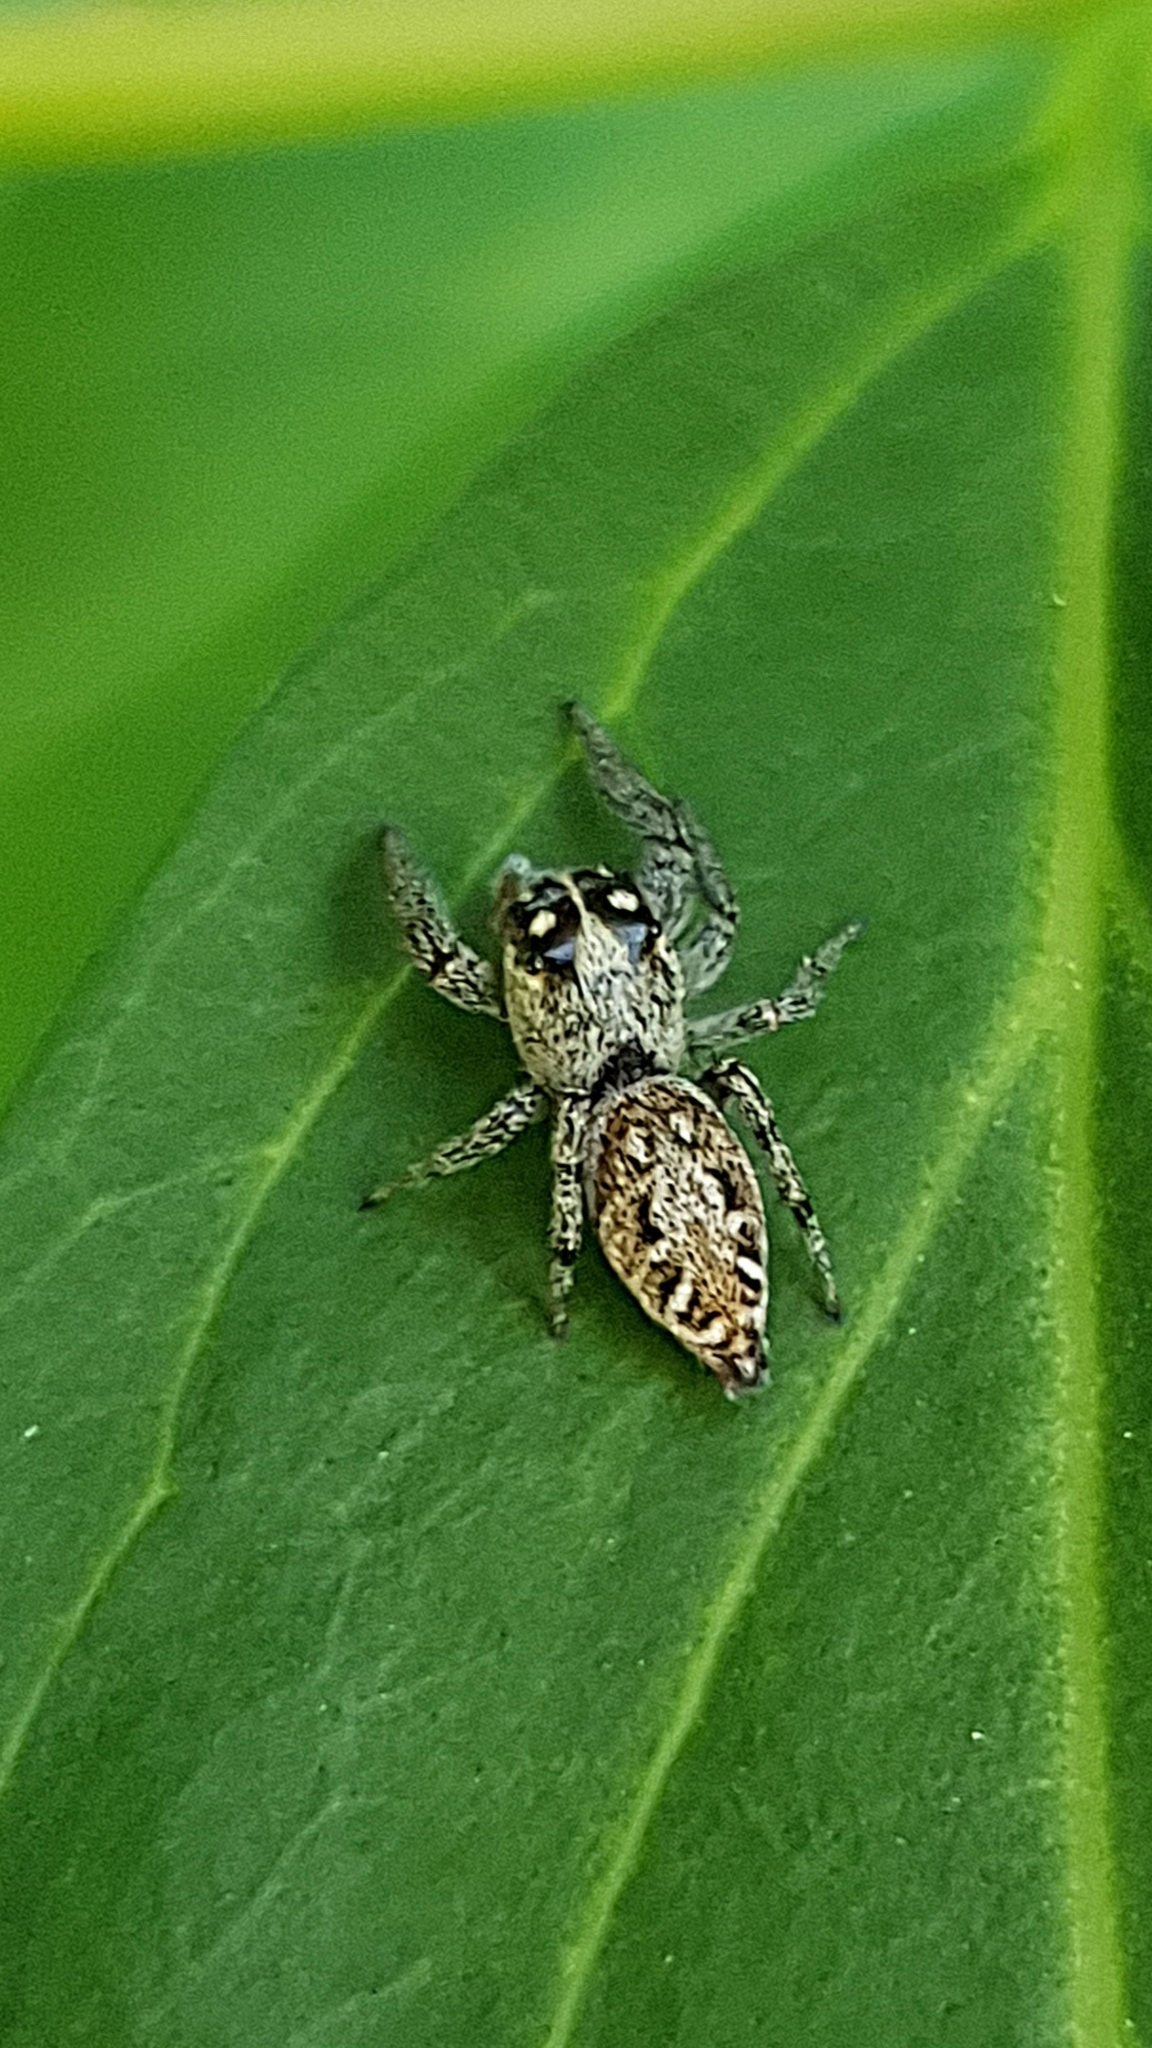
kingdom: Animalia
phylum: Arthropoda
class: Arachnida
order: Araneae
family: Salticidae
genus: Macaroeris
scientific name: Macaroeris nidicolens
